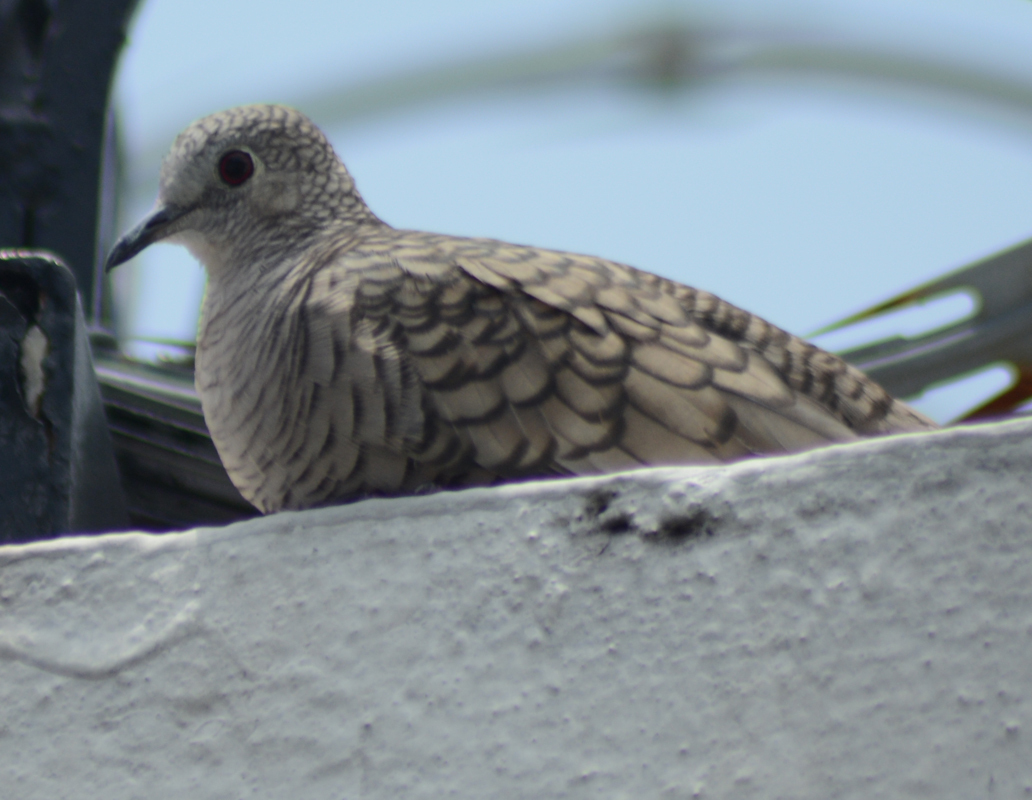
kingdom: Animalia
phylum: Chordata
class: Aves
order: Columbiformes
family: Columbidae
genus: Columbina
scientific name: Columbina inca
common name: Inca dove
